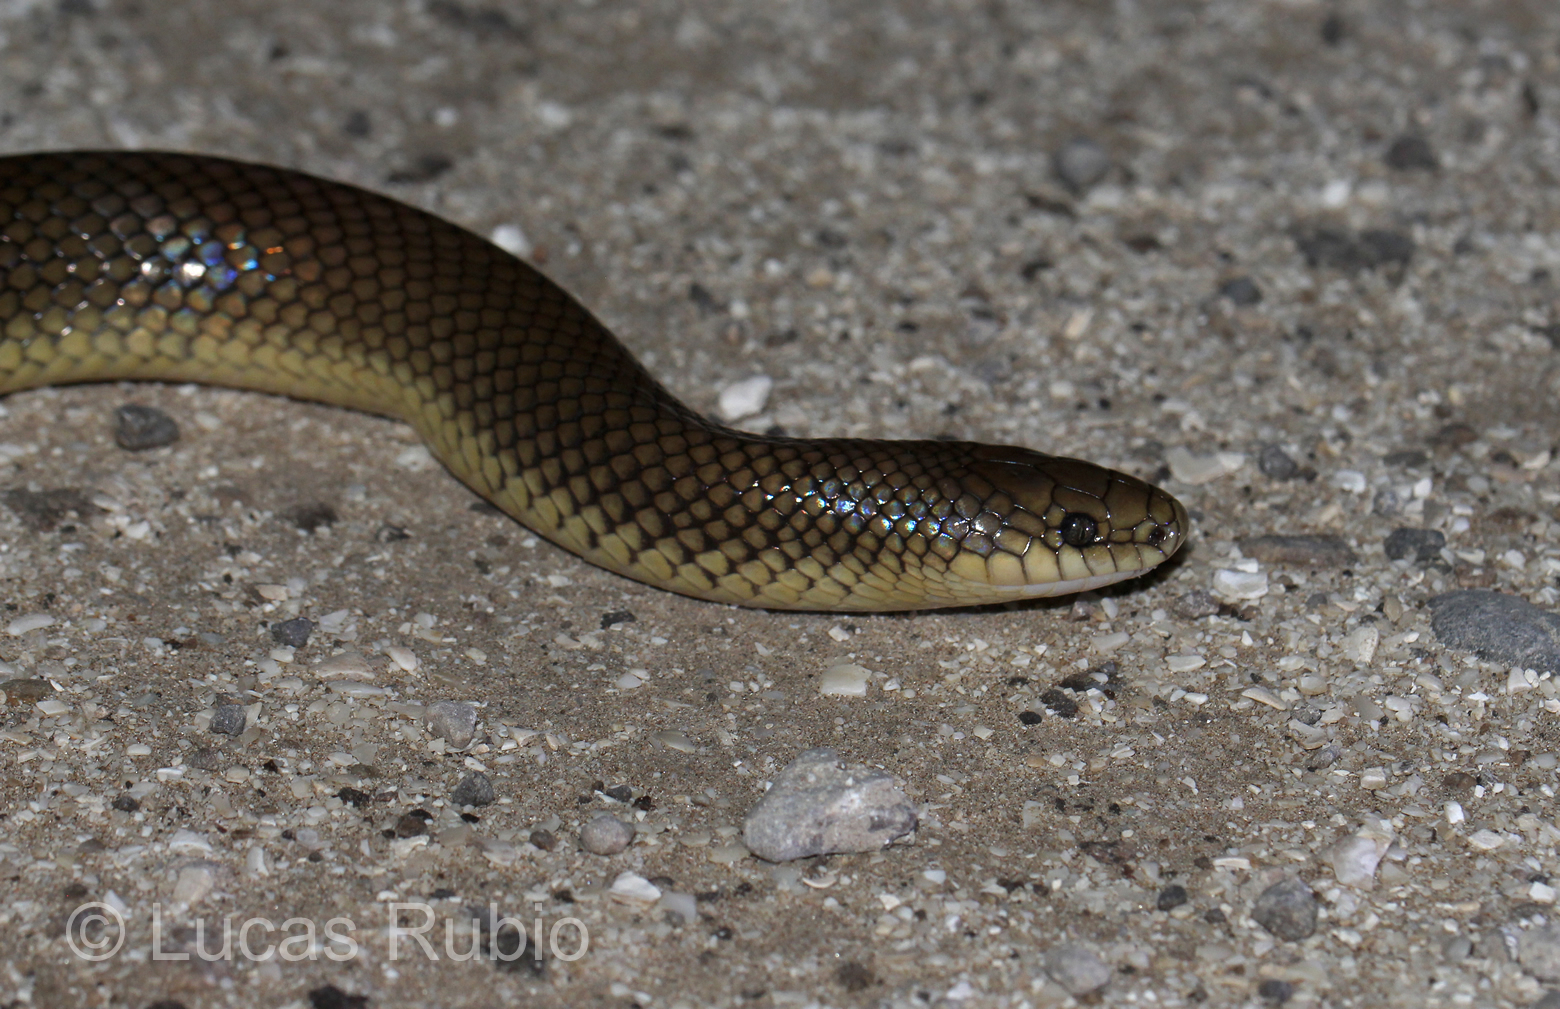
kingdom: Animalia
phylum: Chordata
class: Squamata
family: Colubridae
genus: Paraphimophis
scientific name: Paraphimophis rusticus
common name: Culebra
